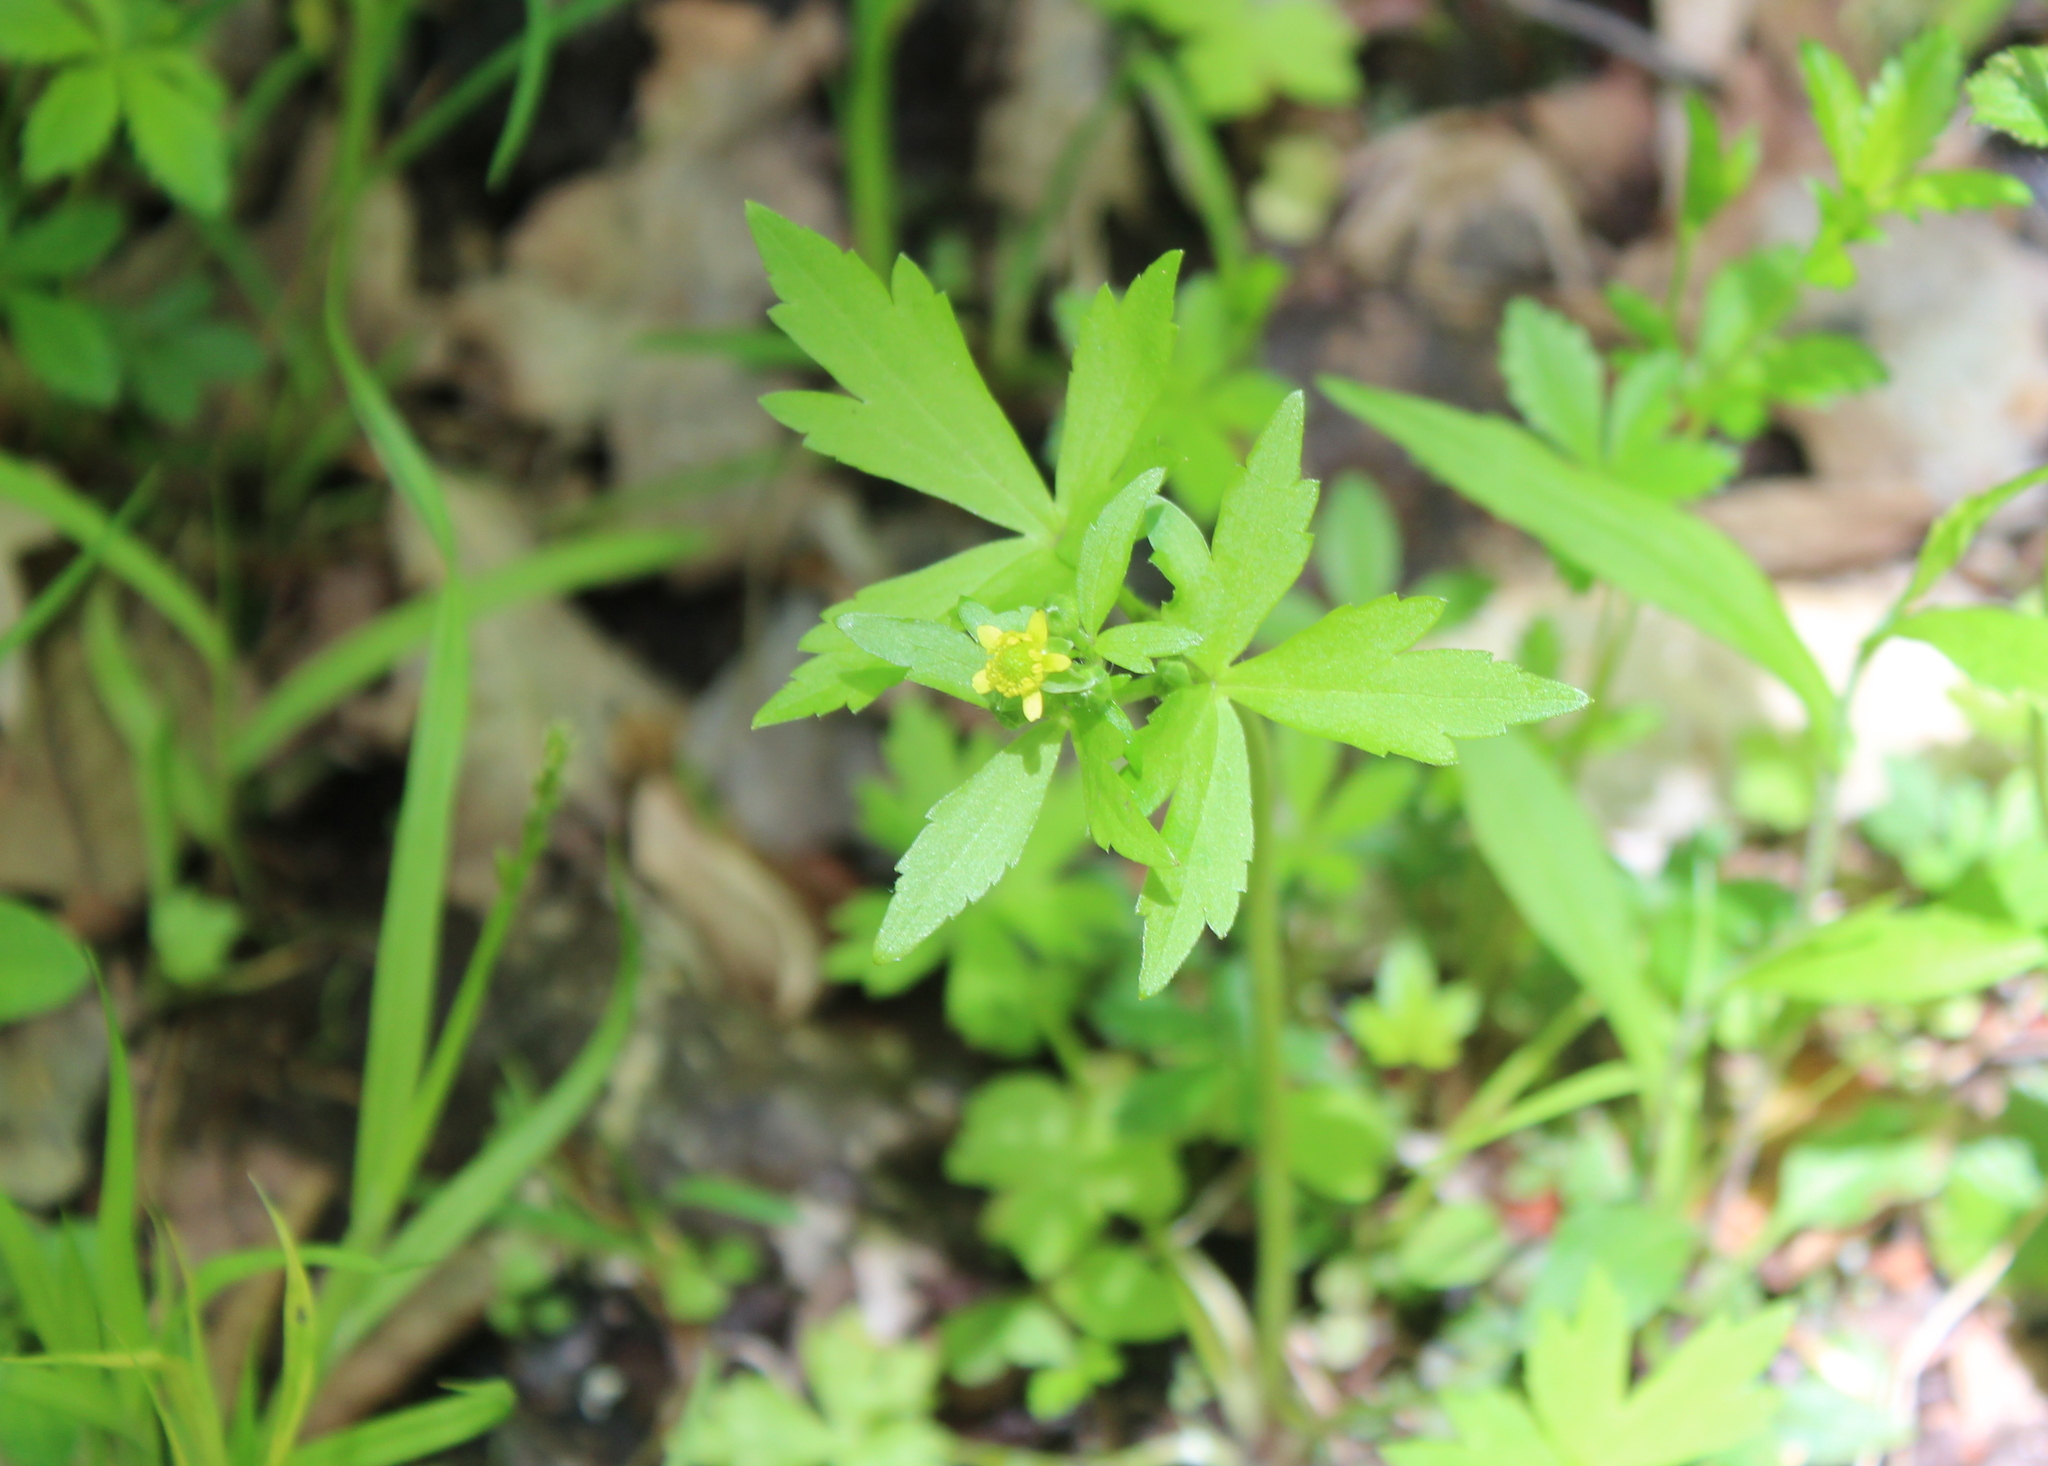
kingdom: Plantae
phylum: Tracheophyta
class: Magnoliopsida
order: Ranunculales
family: Ranunculaceae
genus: Ranunculus
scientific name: Ranunculus recurvatus
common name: Blisterwort
